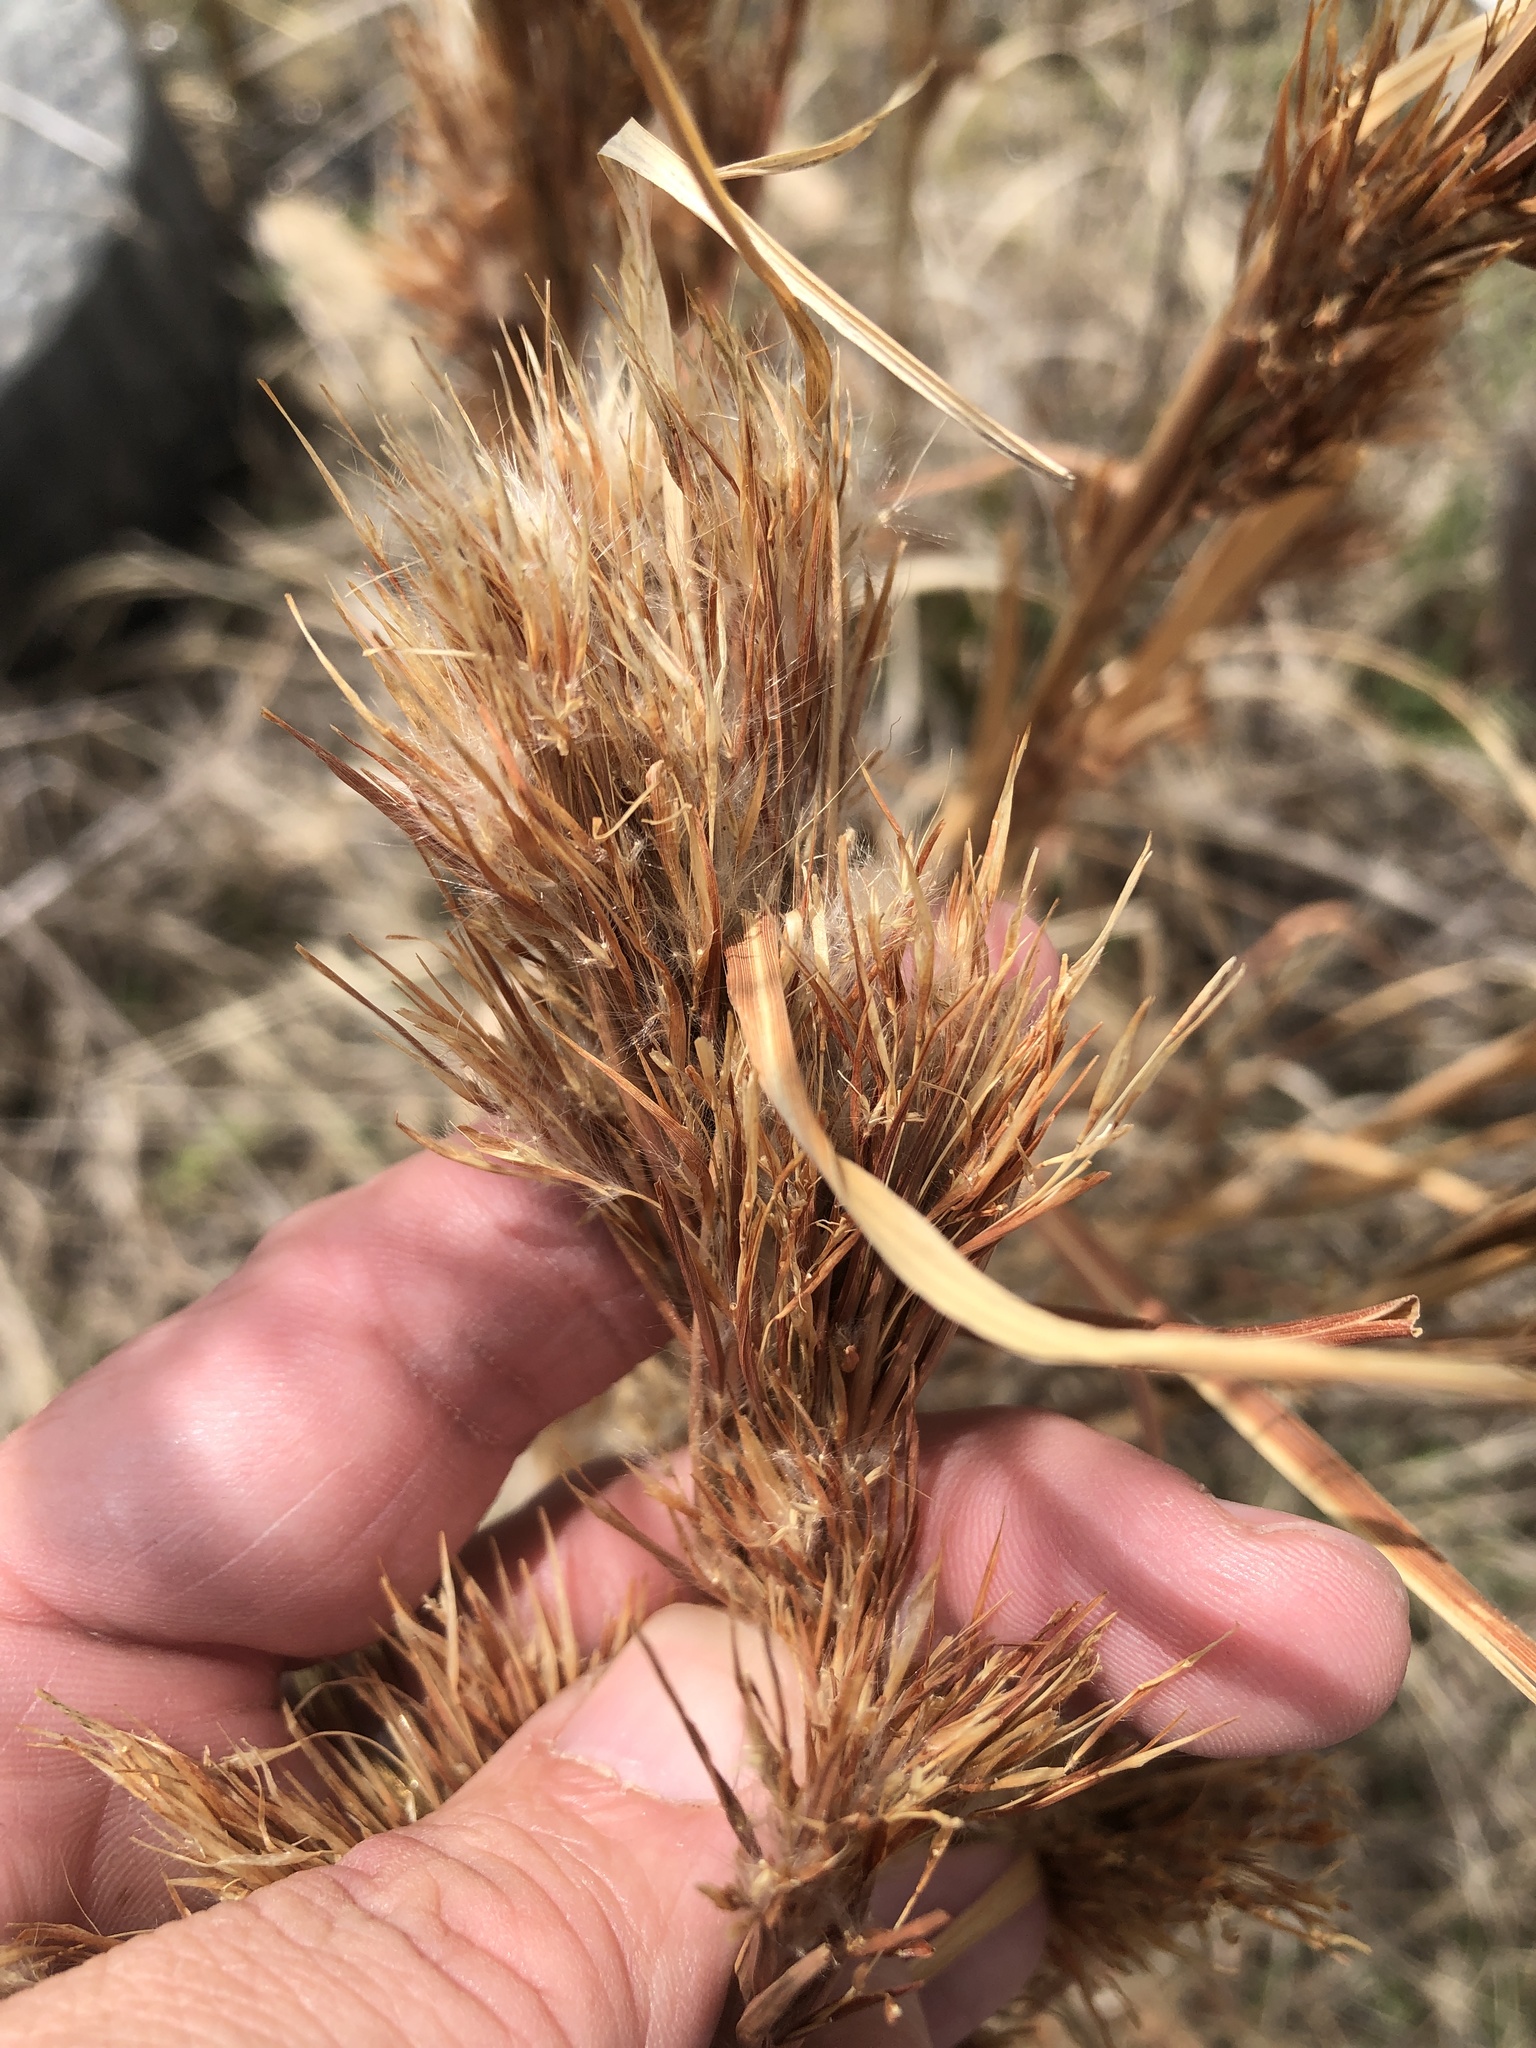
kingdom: Plantae
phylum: Tracheophyta
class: Liliopsida
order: Poales
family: Poaceae
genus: Andropogon
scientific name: Andropogon tenuispatheus
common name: Bushy bluestem
